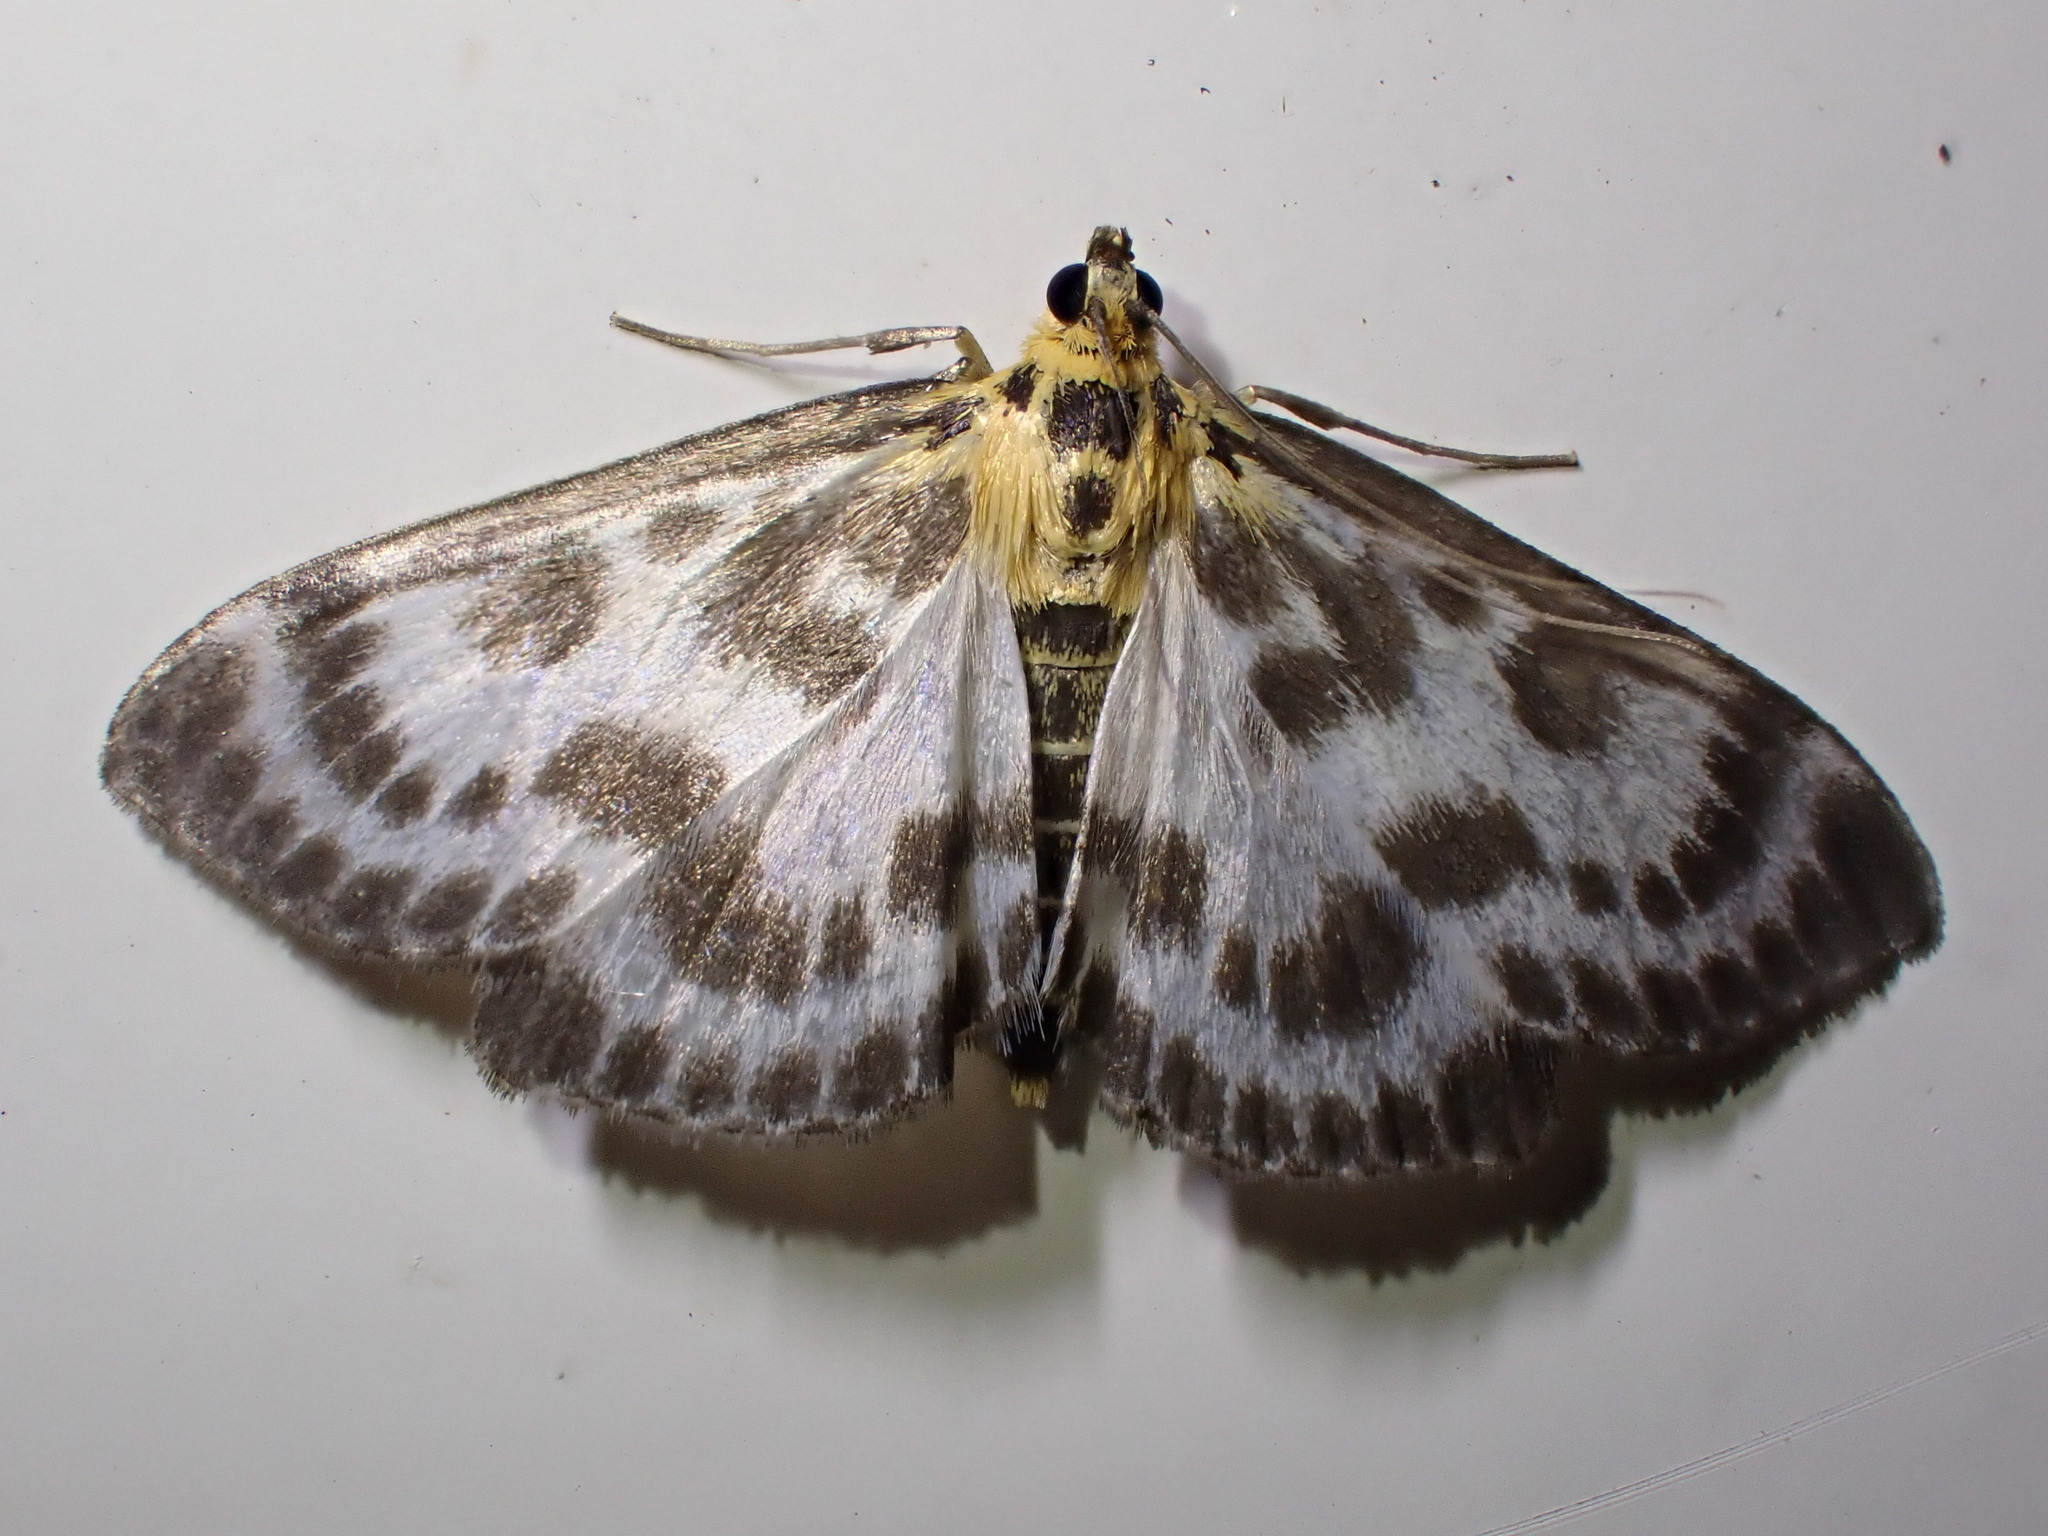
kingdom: Animalia
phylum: Arthropoda
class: Insecta
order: Lepidoptera
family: Crambidae
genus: Anania
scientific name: Anania hortulata
